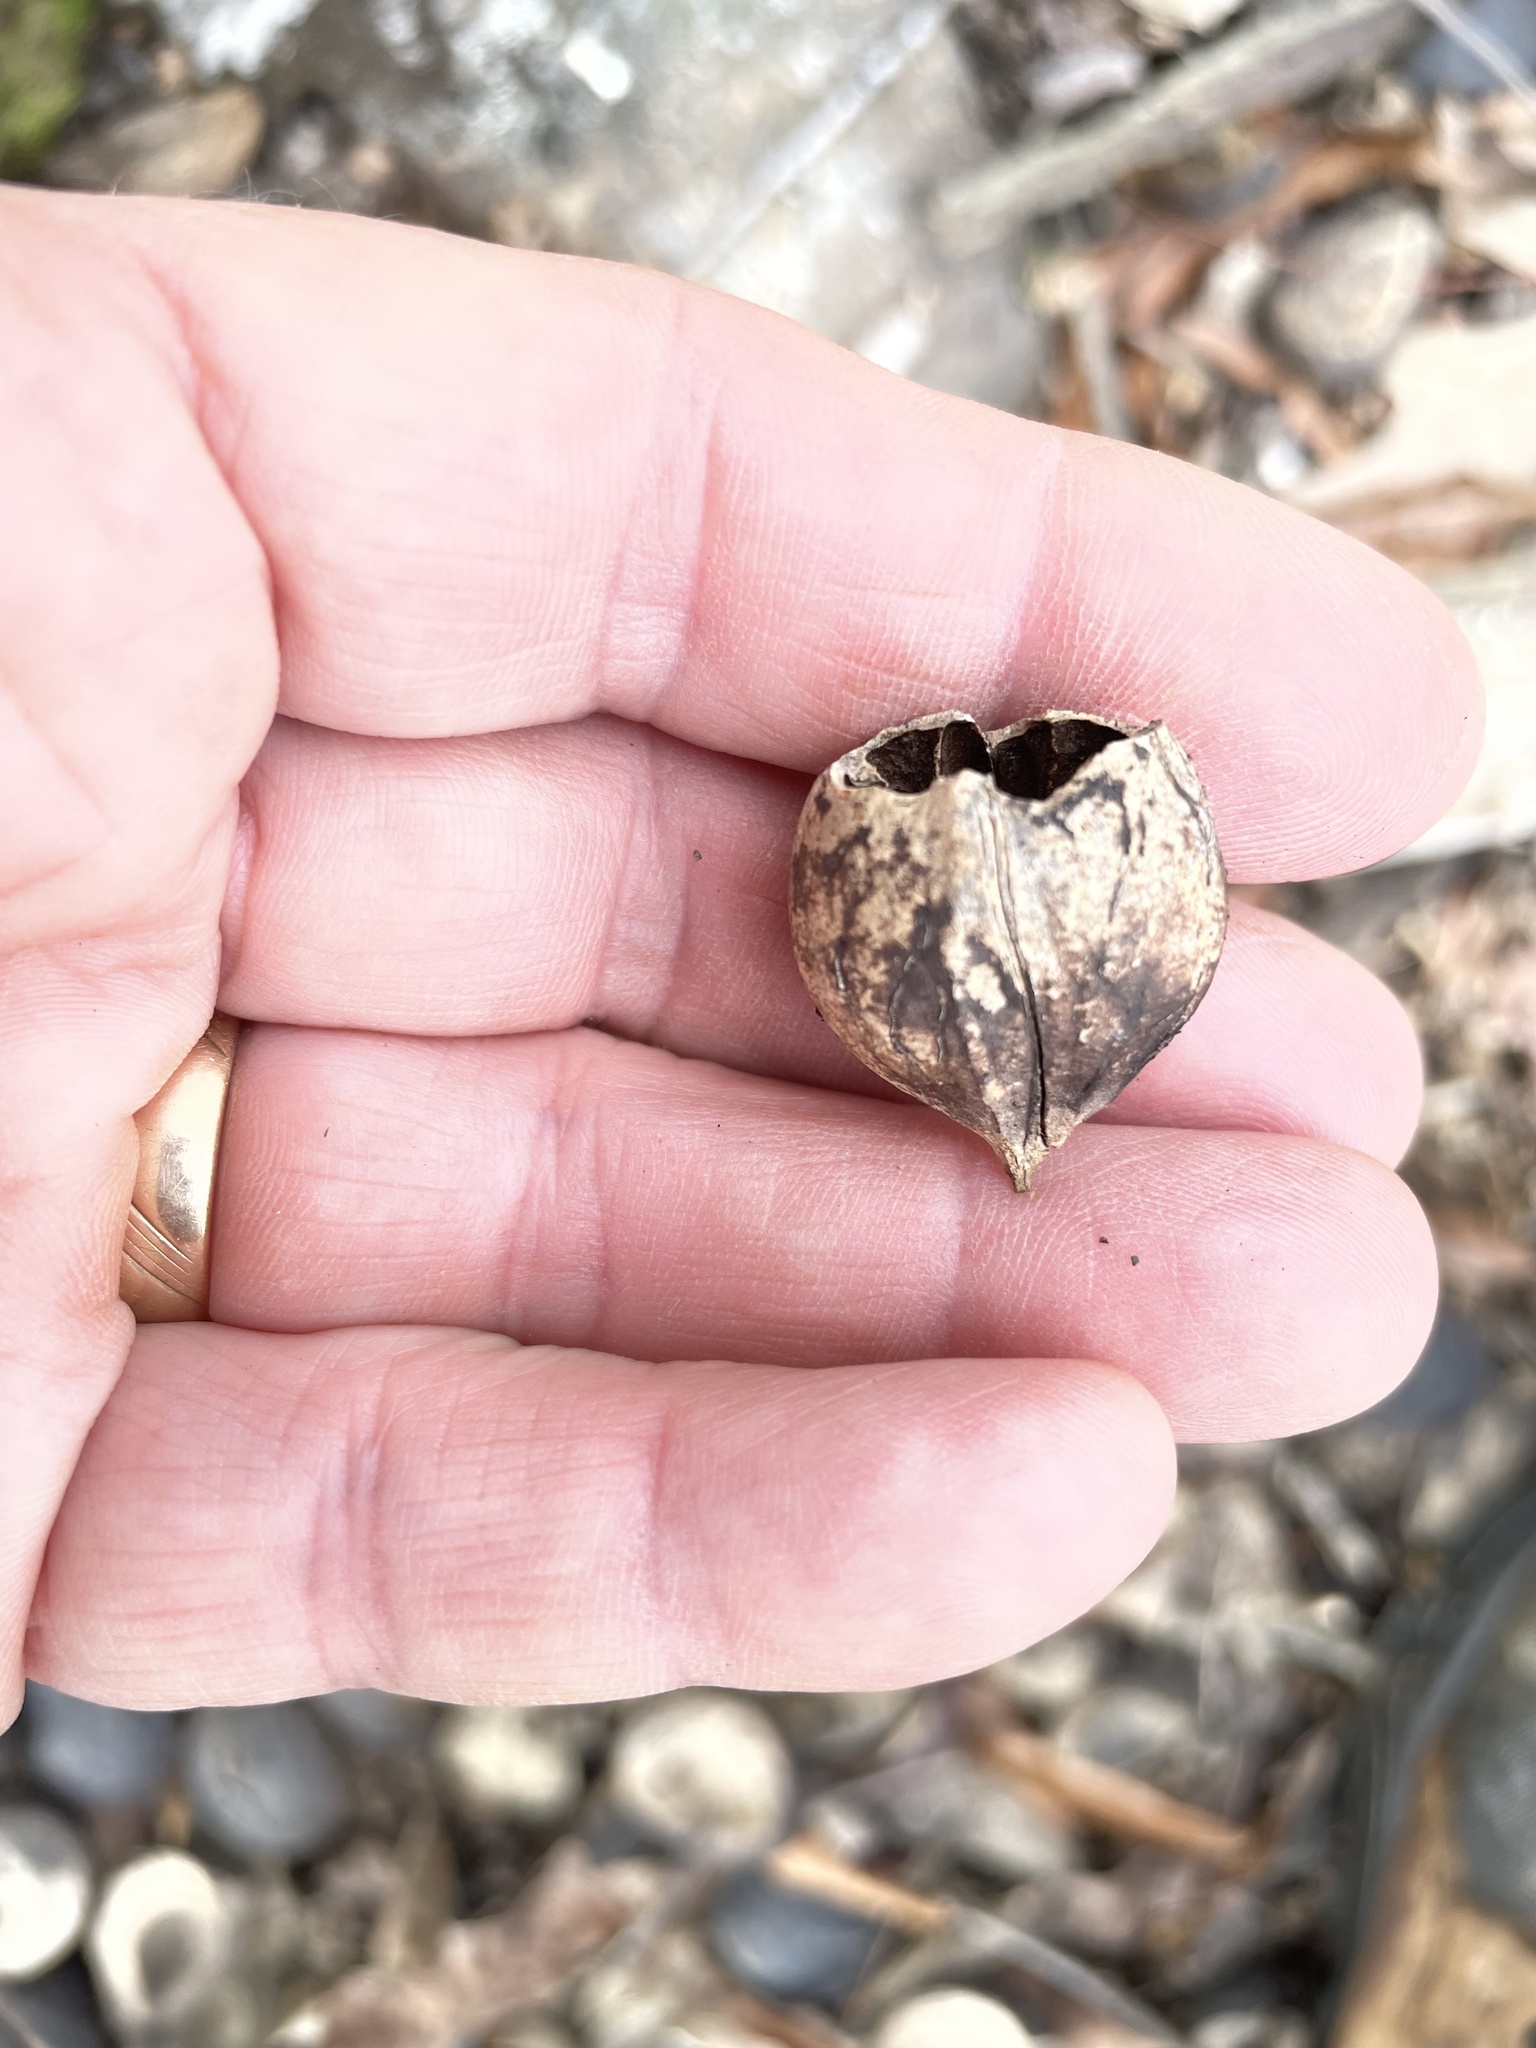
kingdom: Plantae
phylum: Tracheophyta
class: Magnoliopsida
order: Fagales
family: Juglandaceae
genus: Carya
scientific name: Carya ovata
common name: Shagbark hickory
